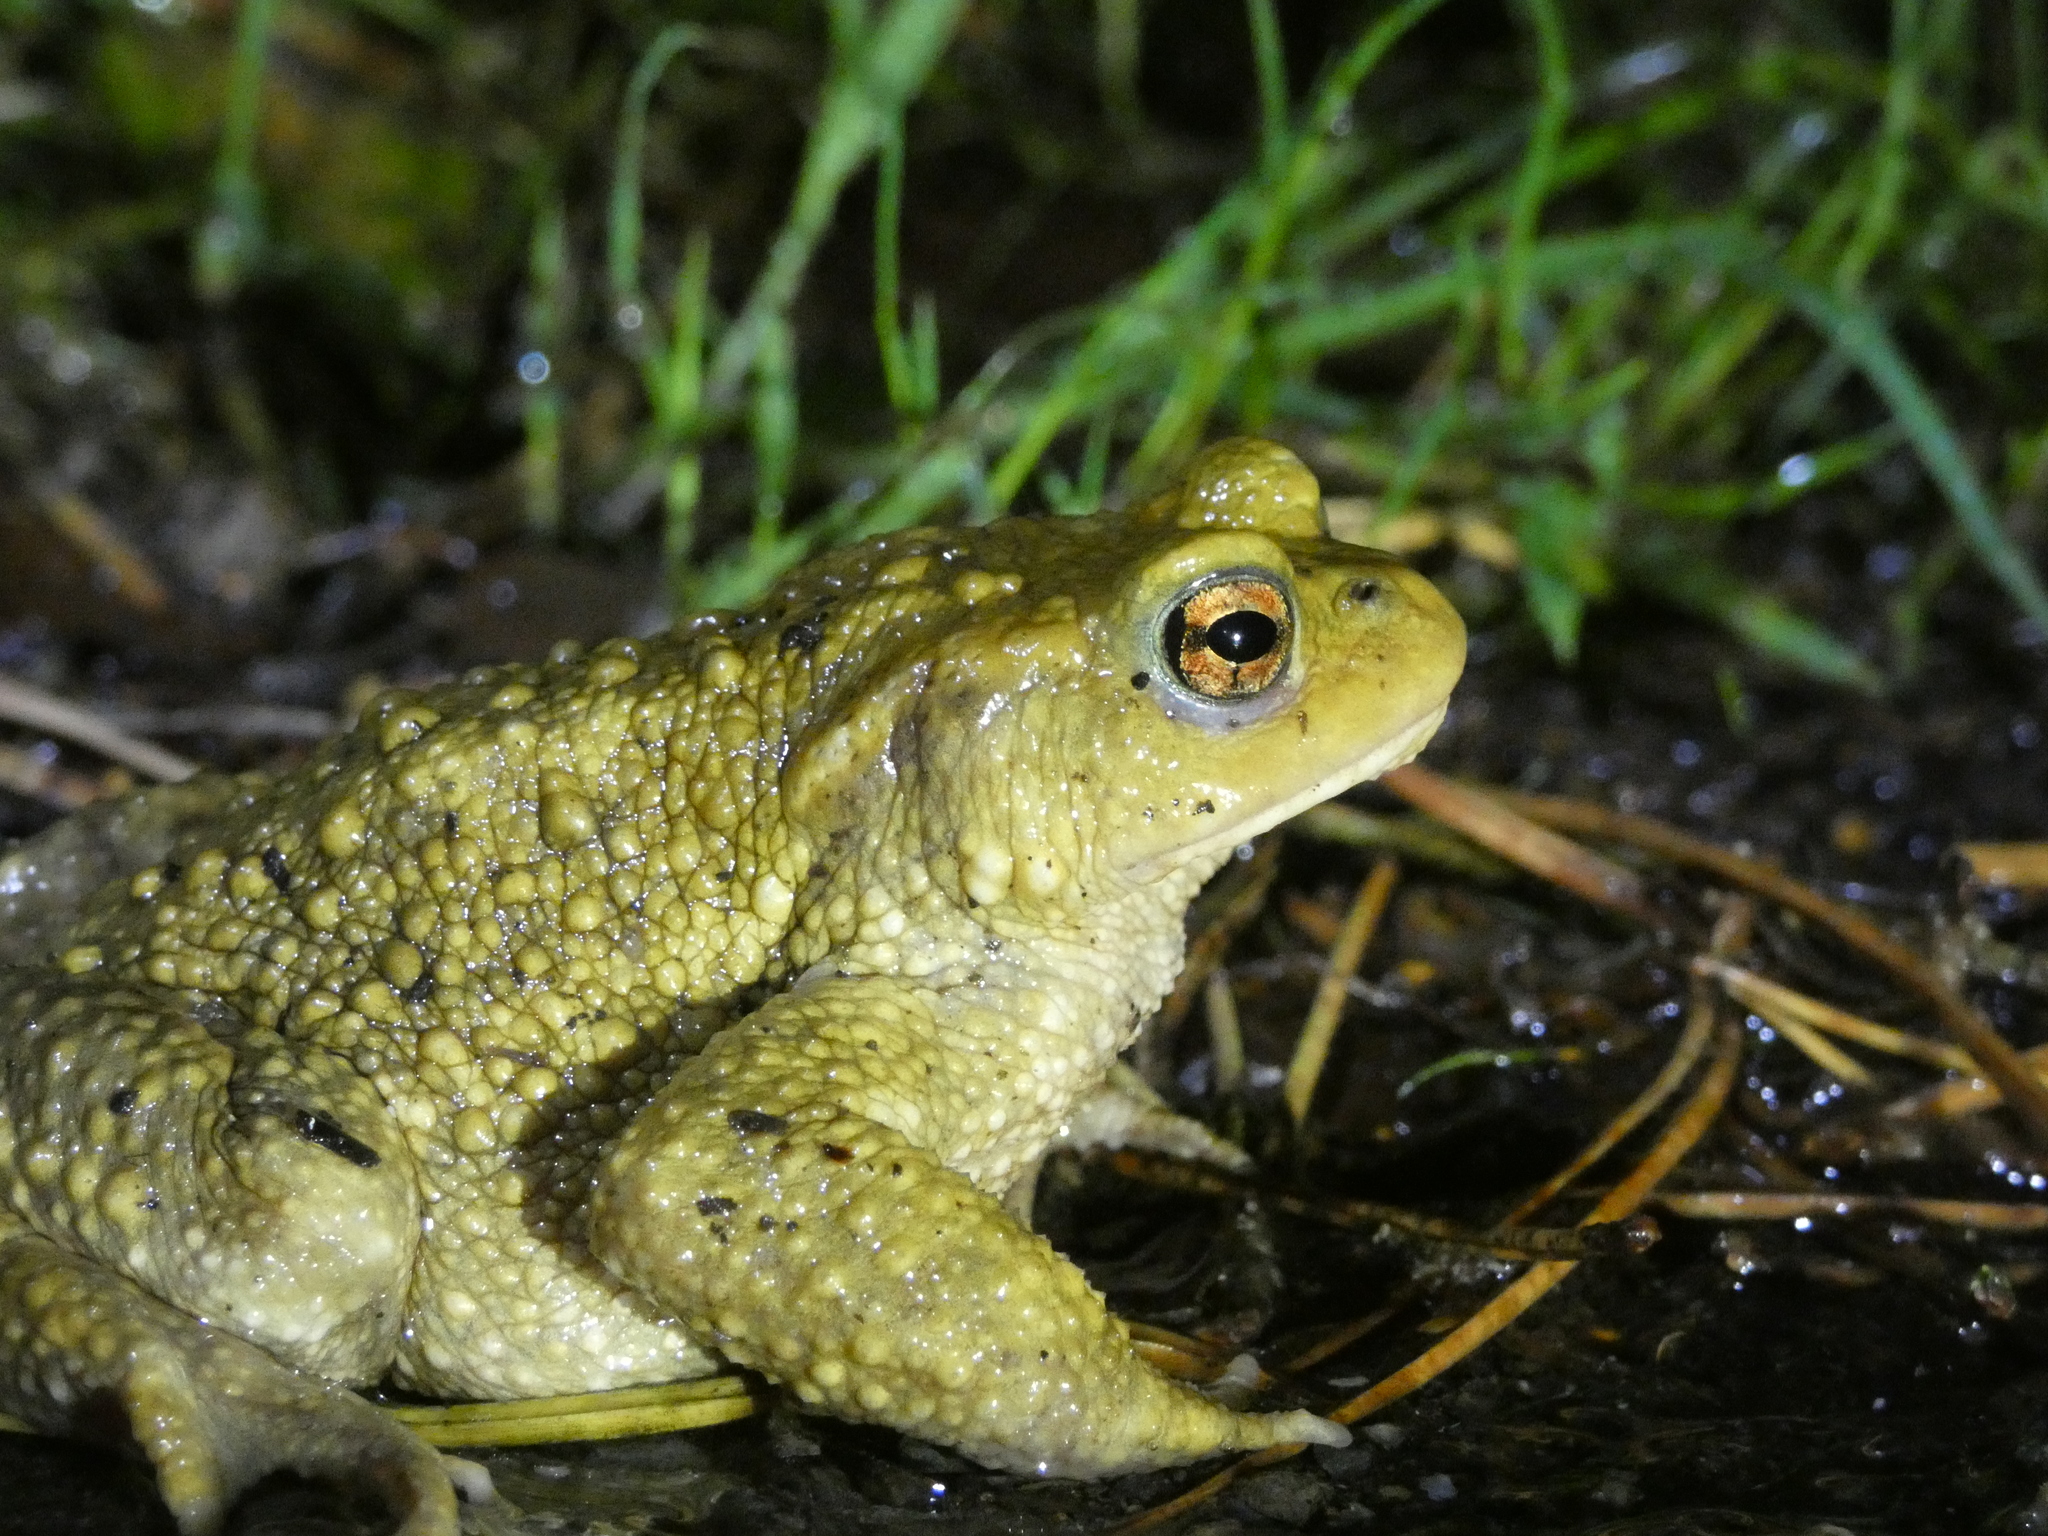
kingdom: Animalia
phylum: Chordata
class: Amphibia
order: Anura
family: Bufonidae
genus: Bufo
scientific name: Bufo spinosus
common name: Western common toad
